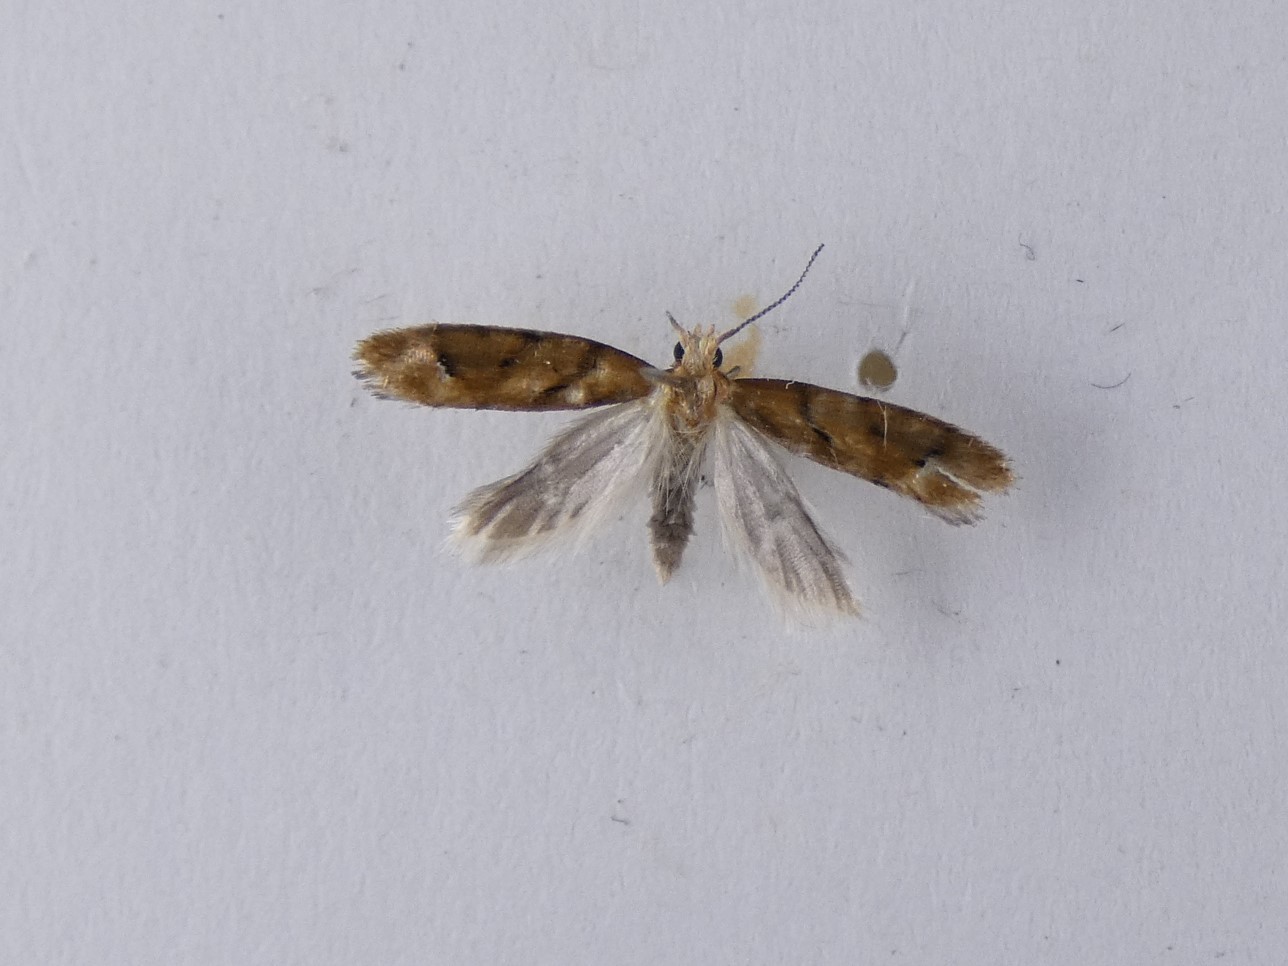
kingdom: Animalia
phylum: Arthropoda
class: Insecta
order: Lepidoptera
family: Glyphipterigidae
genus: Chrysorthenches
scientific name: Chrysorthenches virgata
